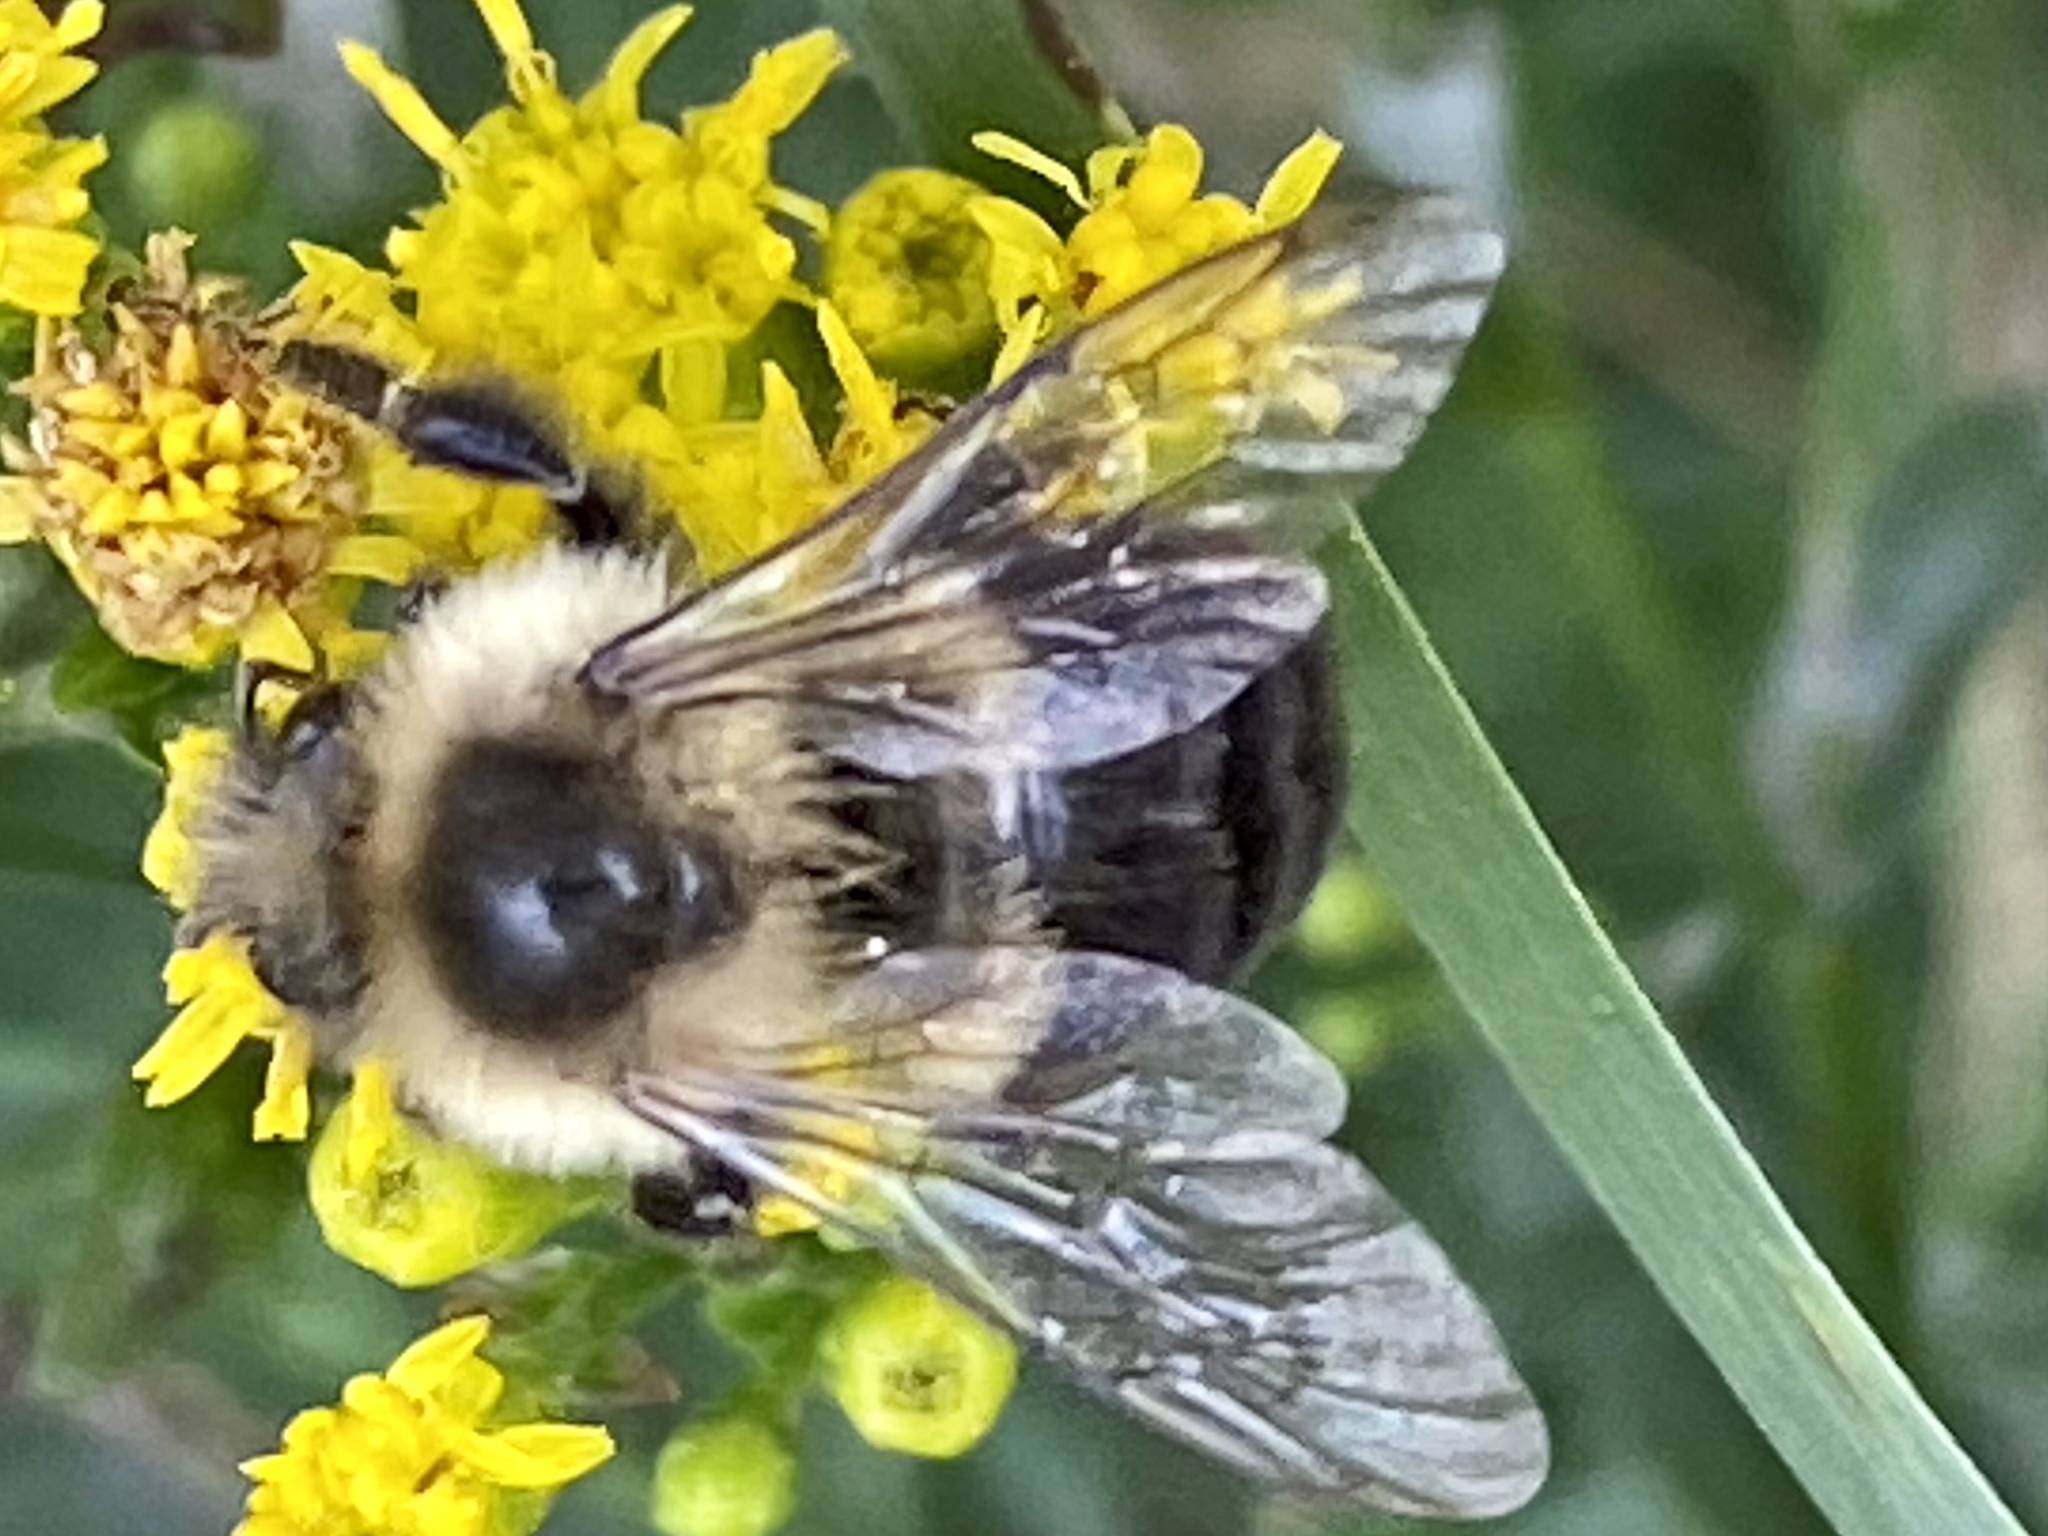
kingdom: Animalia
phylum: Arthropoda
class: Insecta
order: Hymenoptera
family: Apidae
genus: Bombus
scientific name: Bombus impatiens
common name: Common eastern bumble bee
